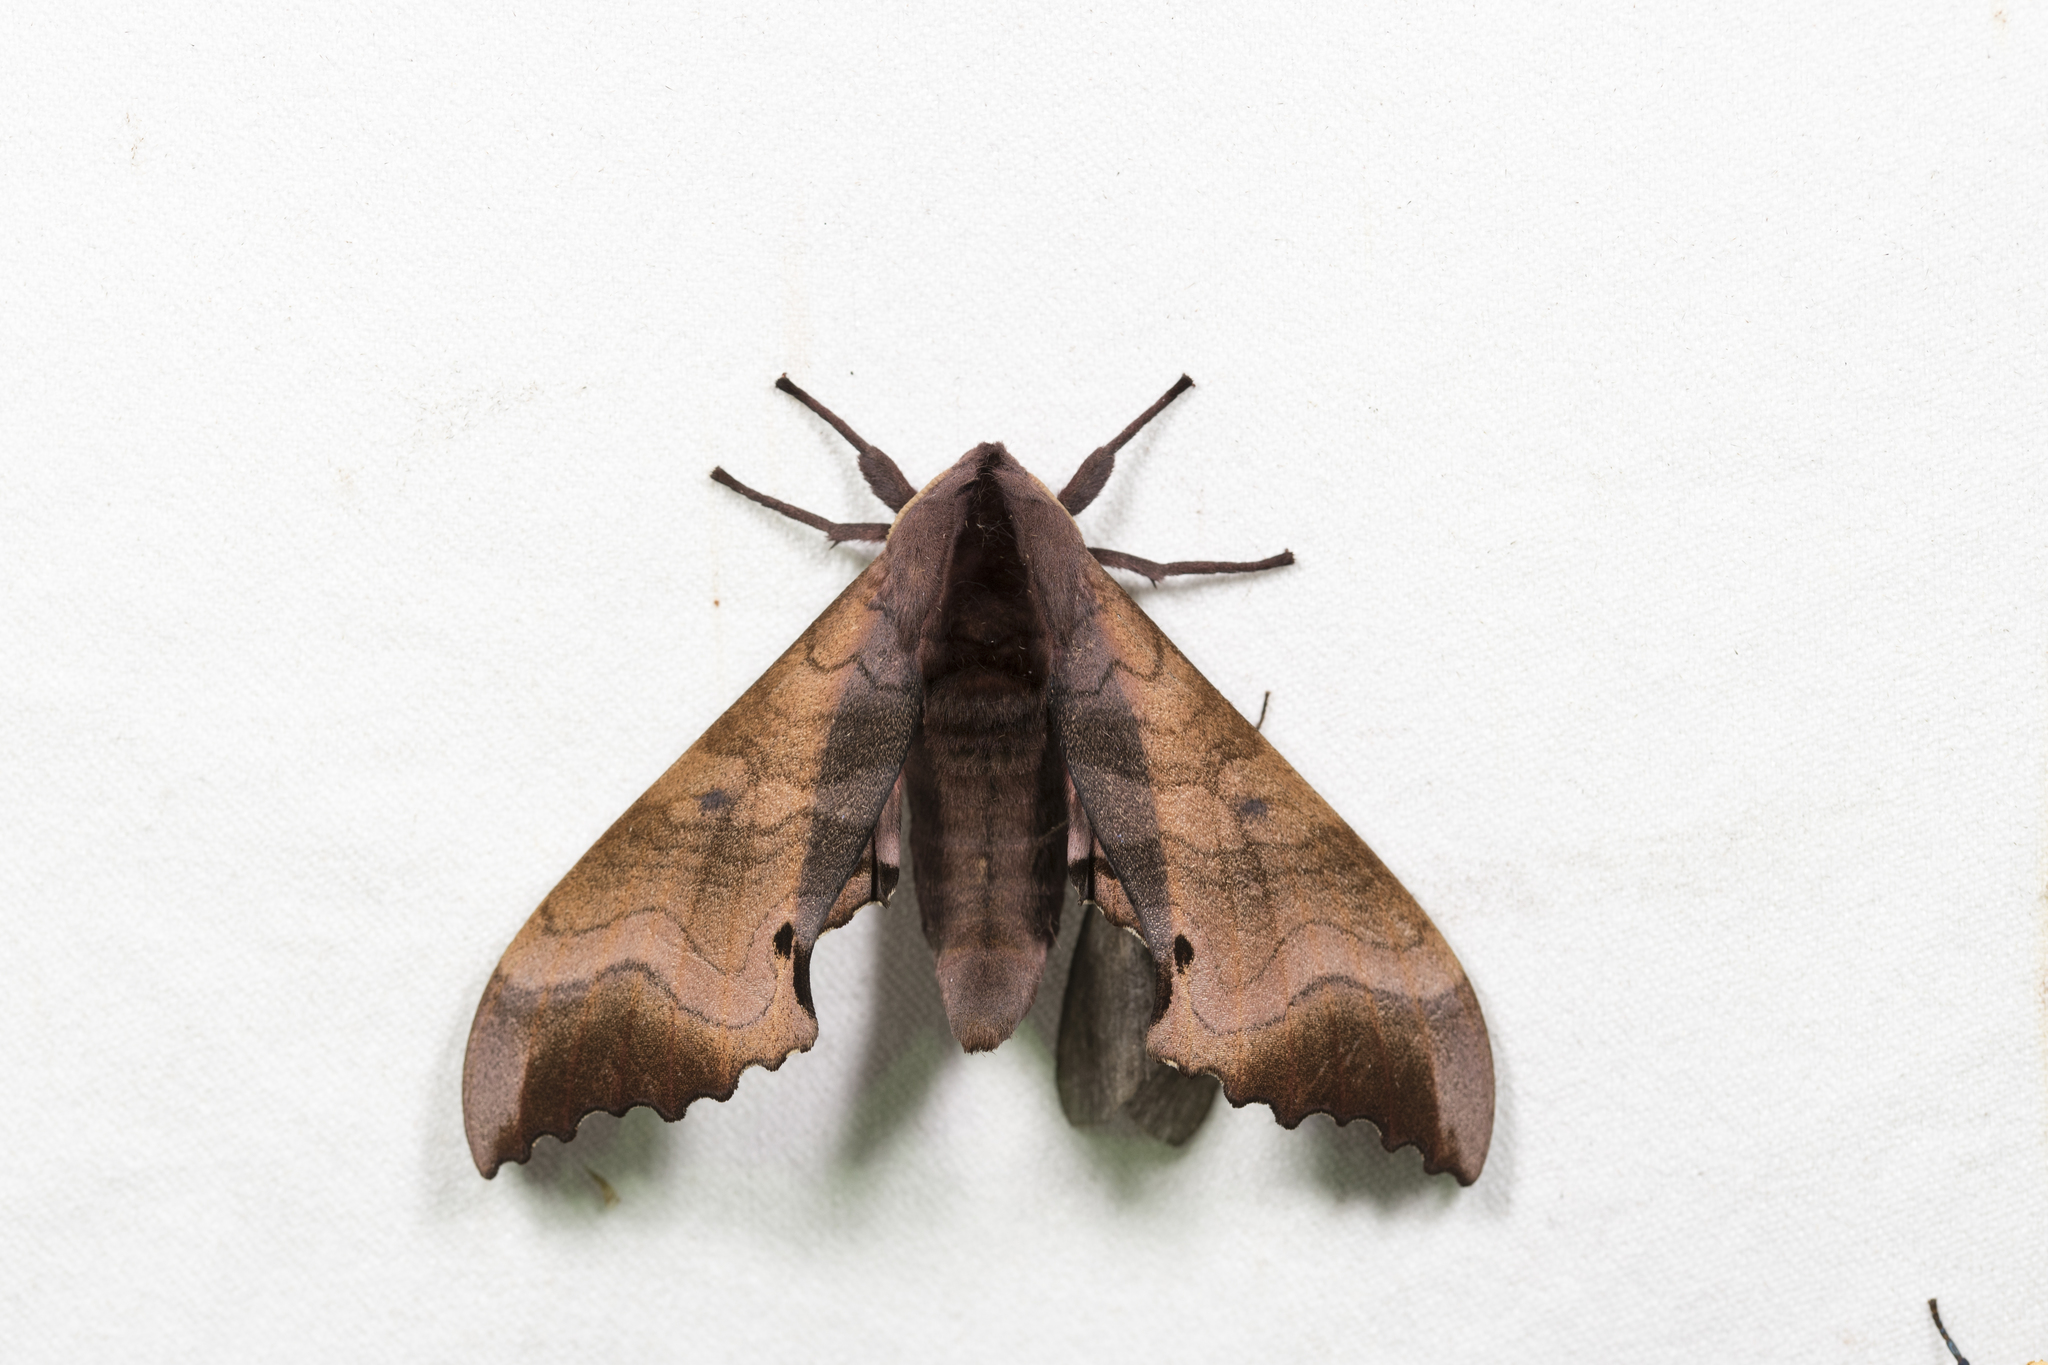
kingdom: Animalia
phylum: Arthropoda
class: Insecta
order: Lepidoptera
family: Sphingidae
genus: Marumba
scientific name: Marumba gaschkewitschii
